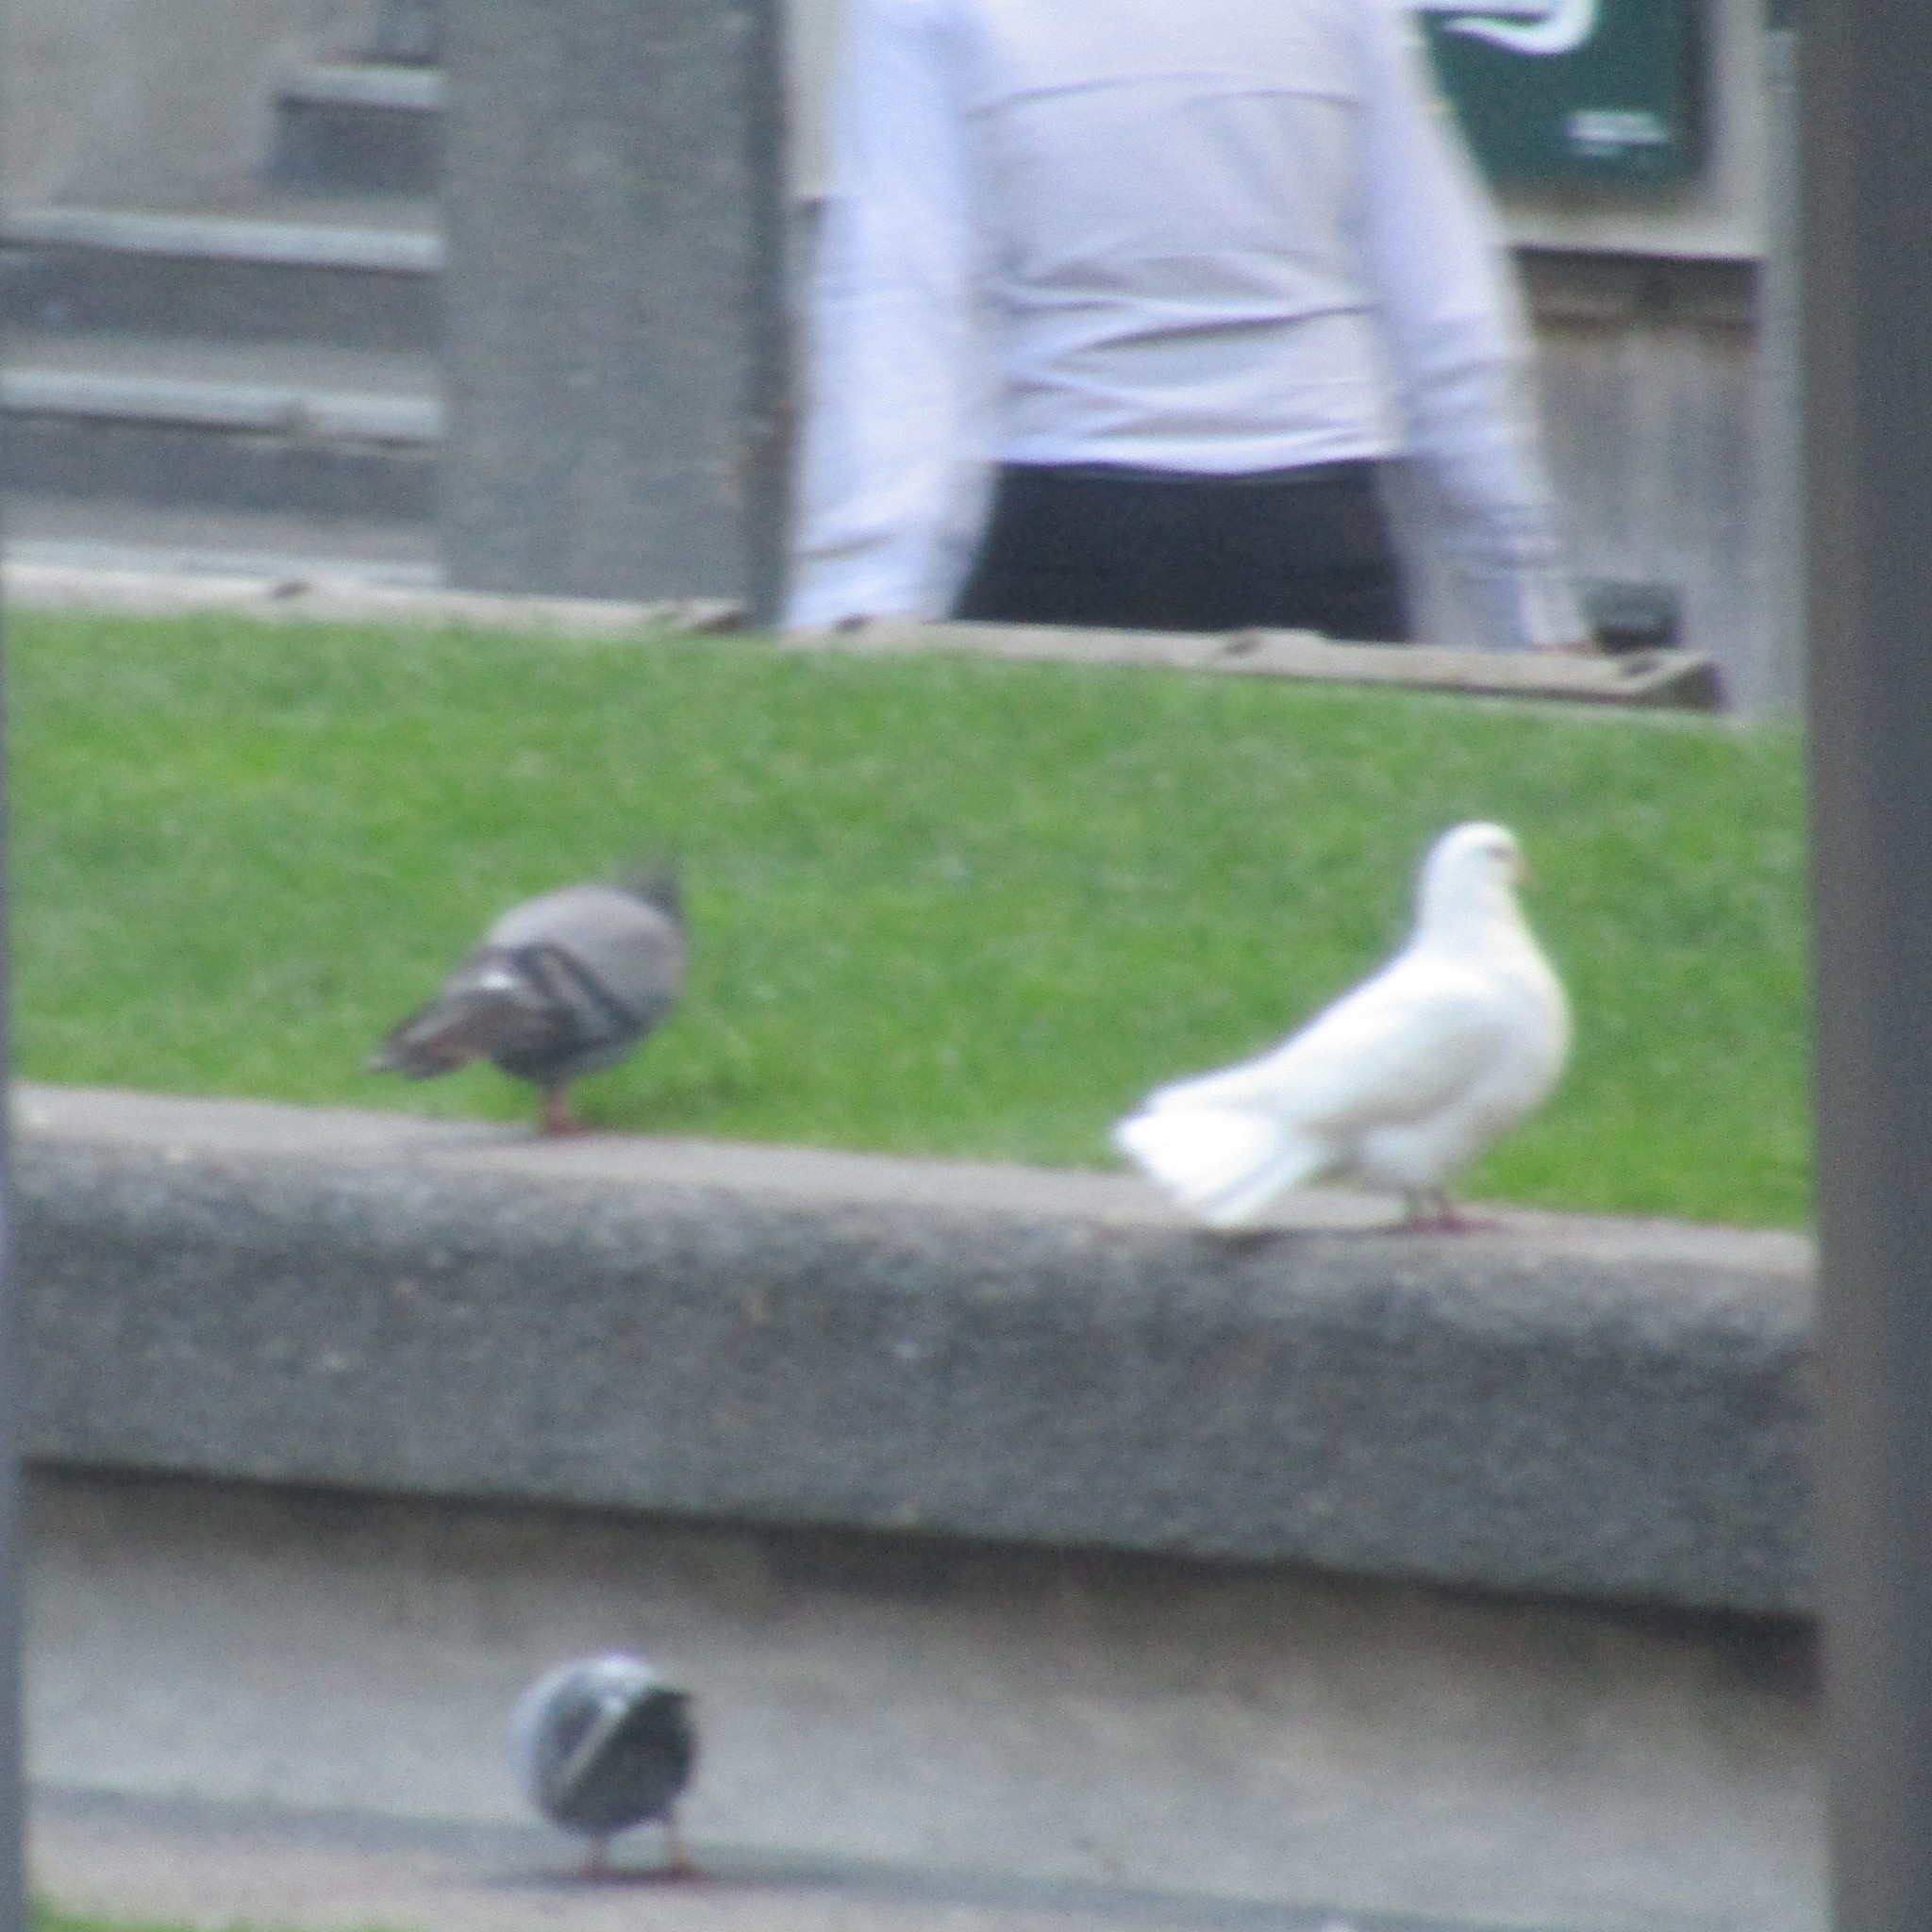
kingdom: Animalia
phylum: Chordata
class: Aves
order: Columbiformes
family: Columbidae
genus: Columba
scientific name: Columba livia
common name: Rock pigeon
